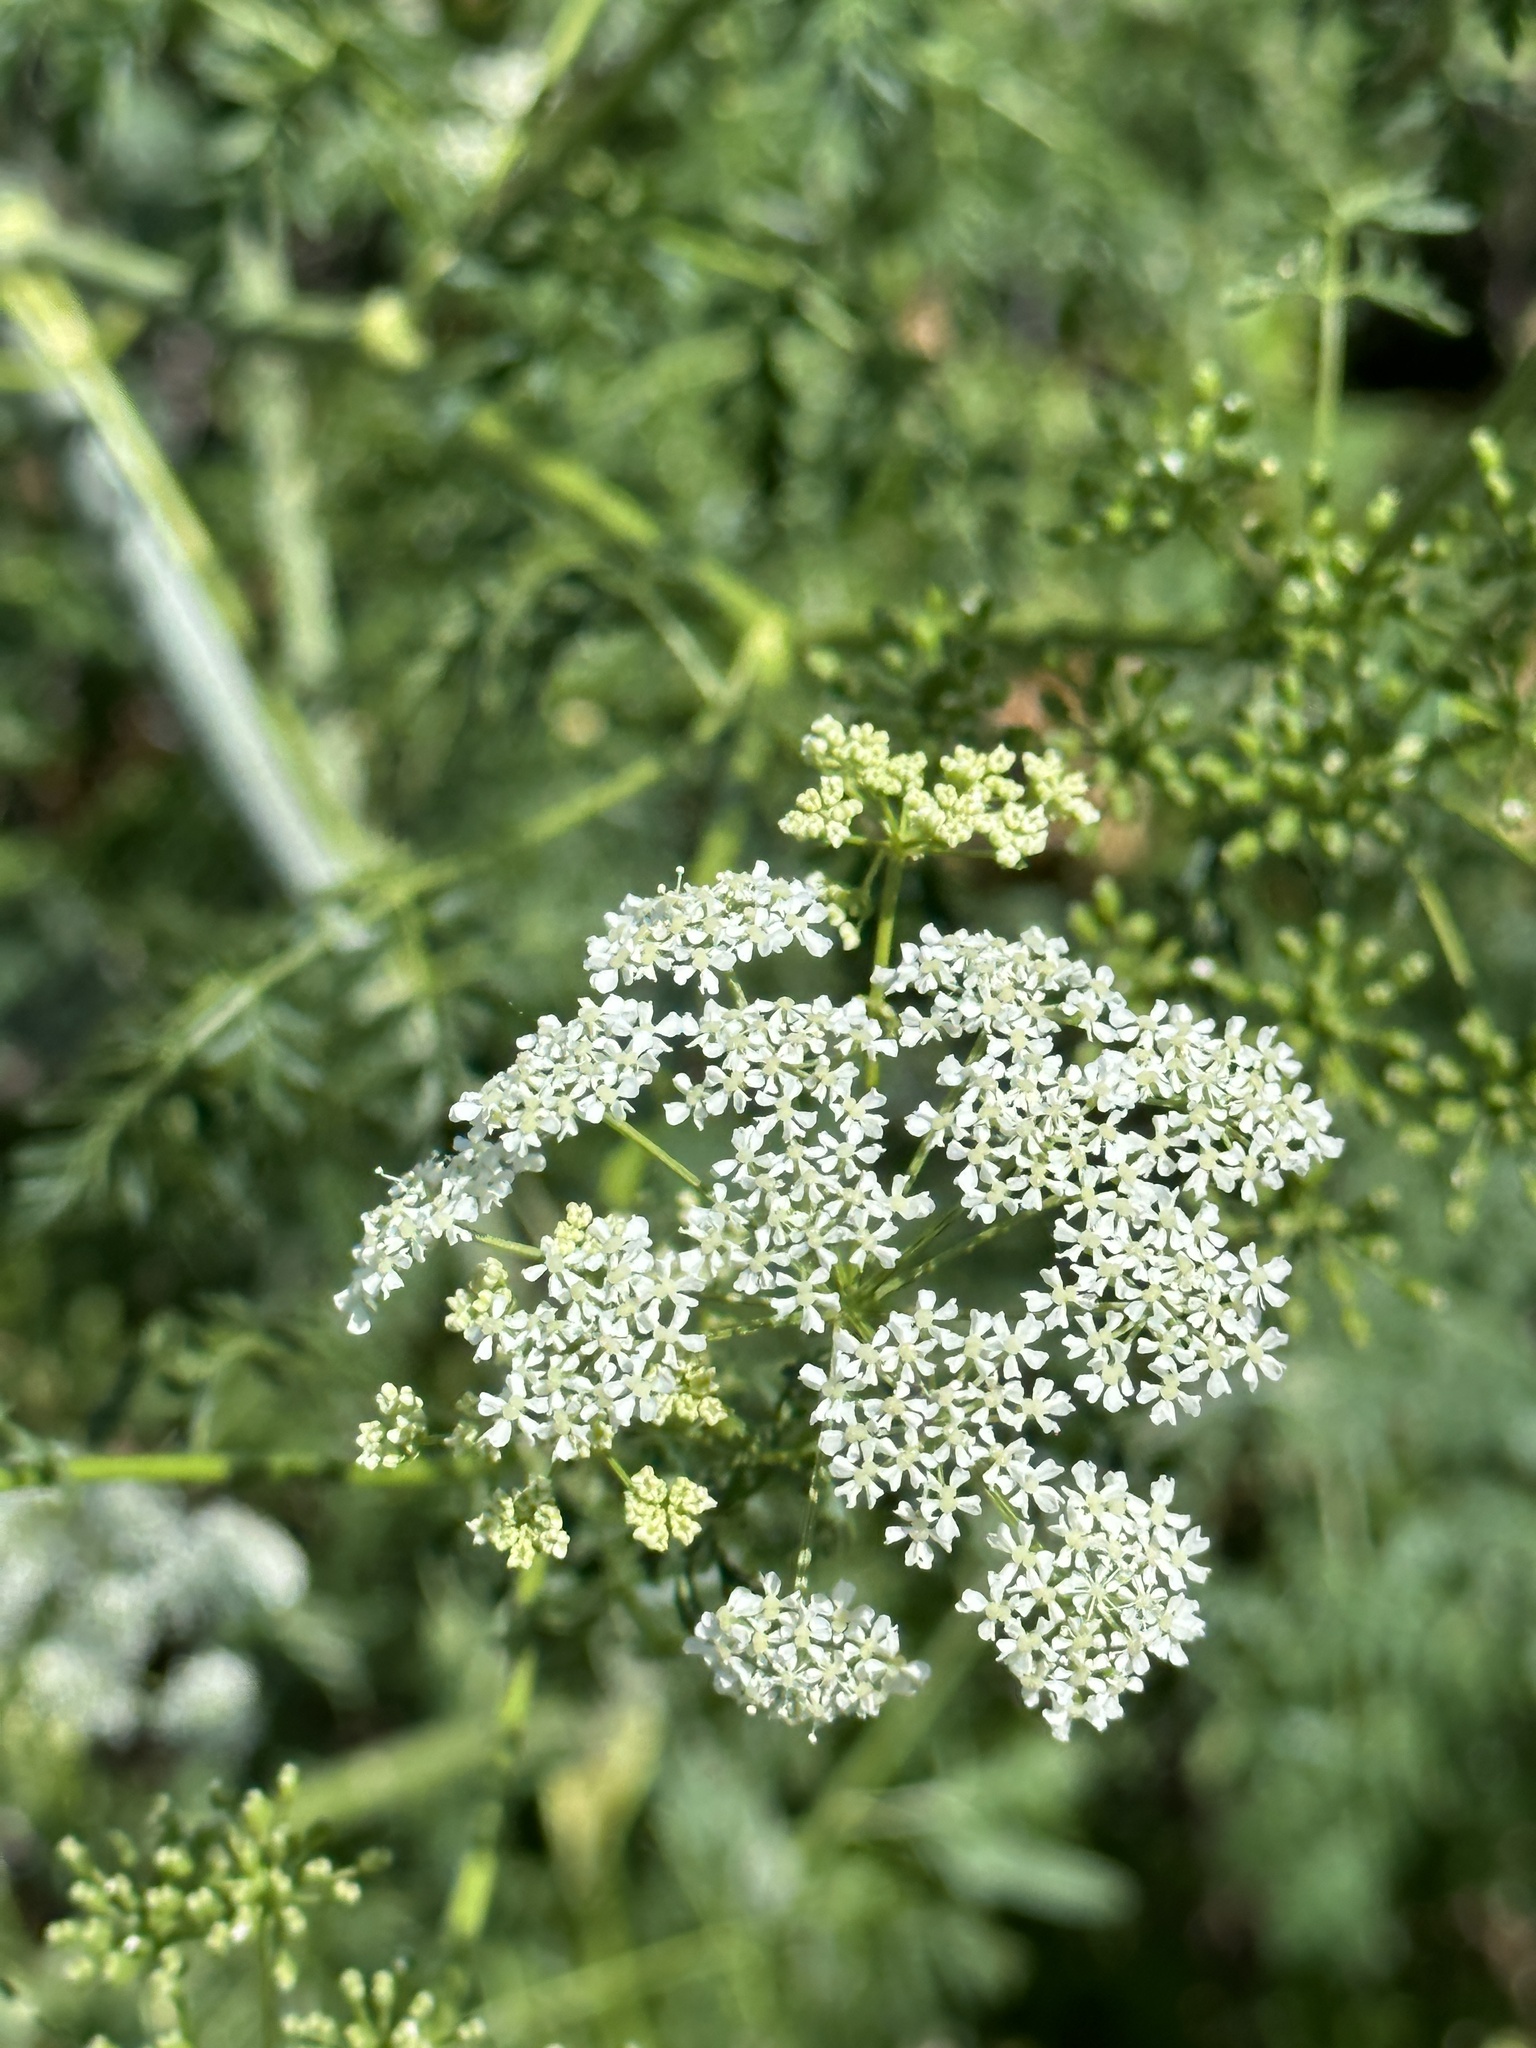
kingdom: Plantae
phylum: Tracheophyta
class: Magnoliopsida
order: Apiales
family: Apiaceae
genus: Conium
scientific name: Conium maculatum
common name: Hemlock
